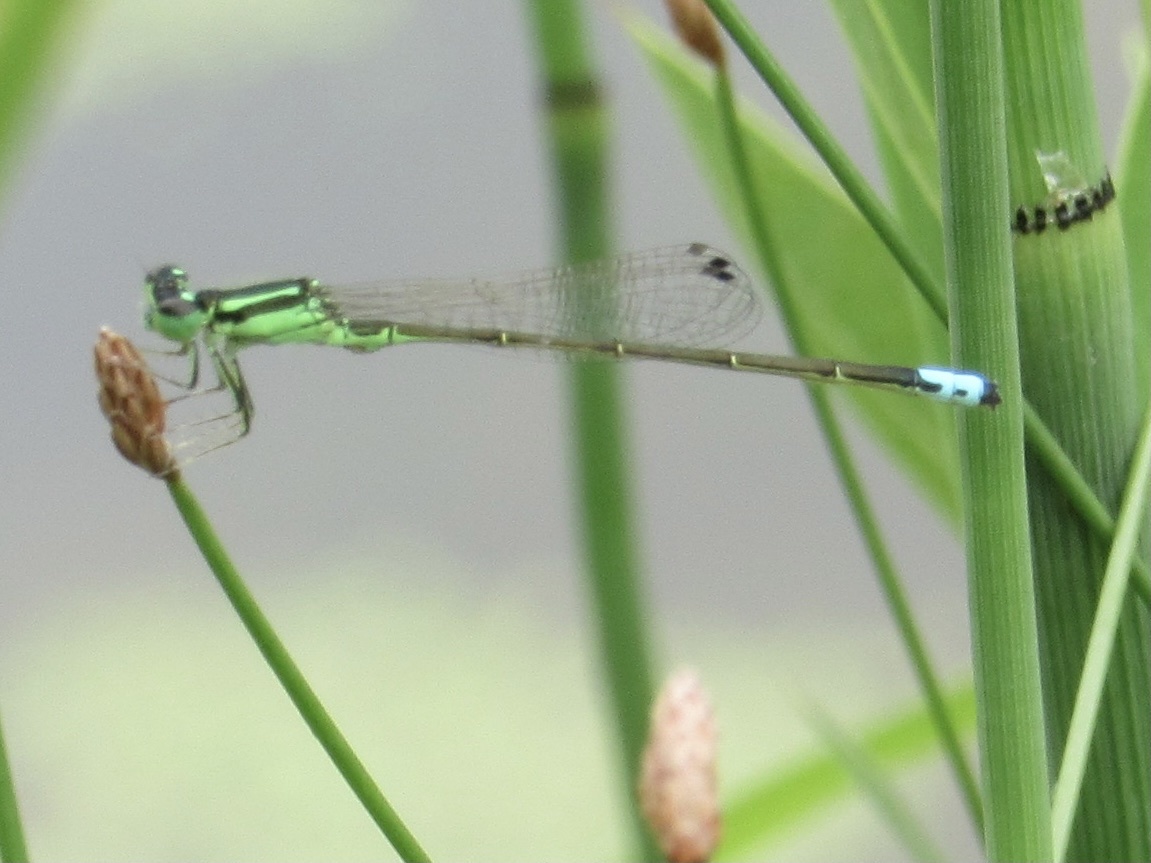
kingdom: Animalia
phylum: Arthropoda
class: Insecta
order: Odonata
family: Coenagrionidae
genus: Ischnura
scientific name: Ischnura verticalis
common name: Eastern forktail
